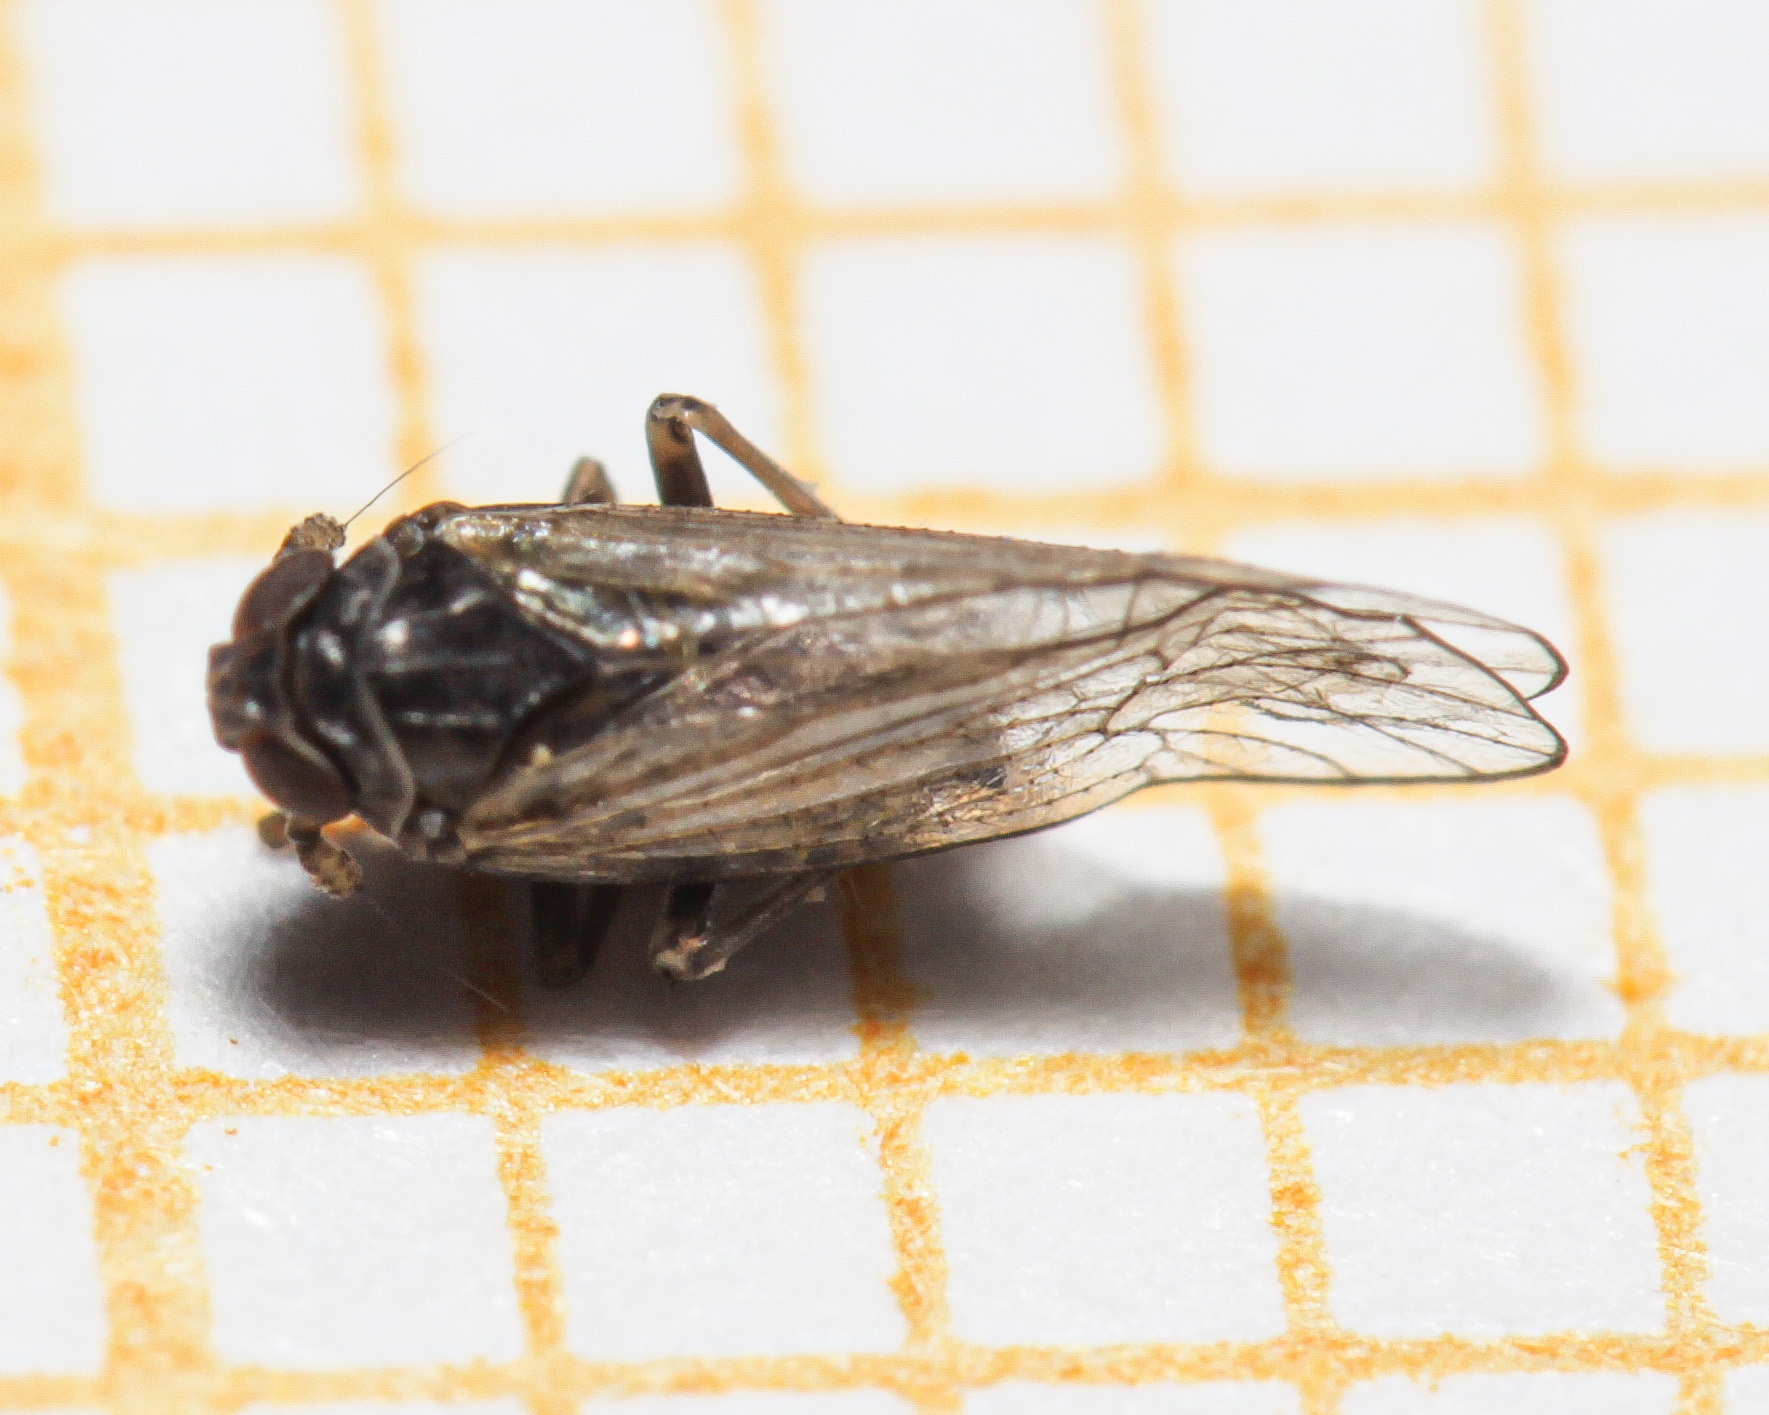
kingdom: Animalia
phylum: Arthropoda
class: Insecta
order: Hemiptera
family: Delphacidae
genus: Javesella
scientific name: Javesella dubia
